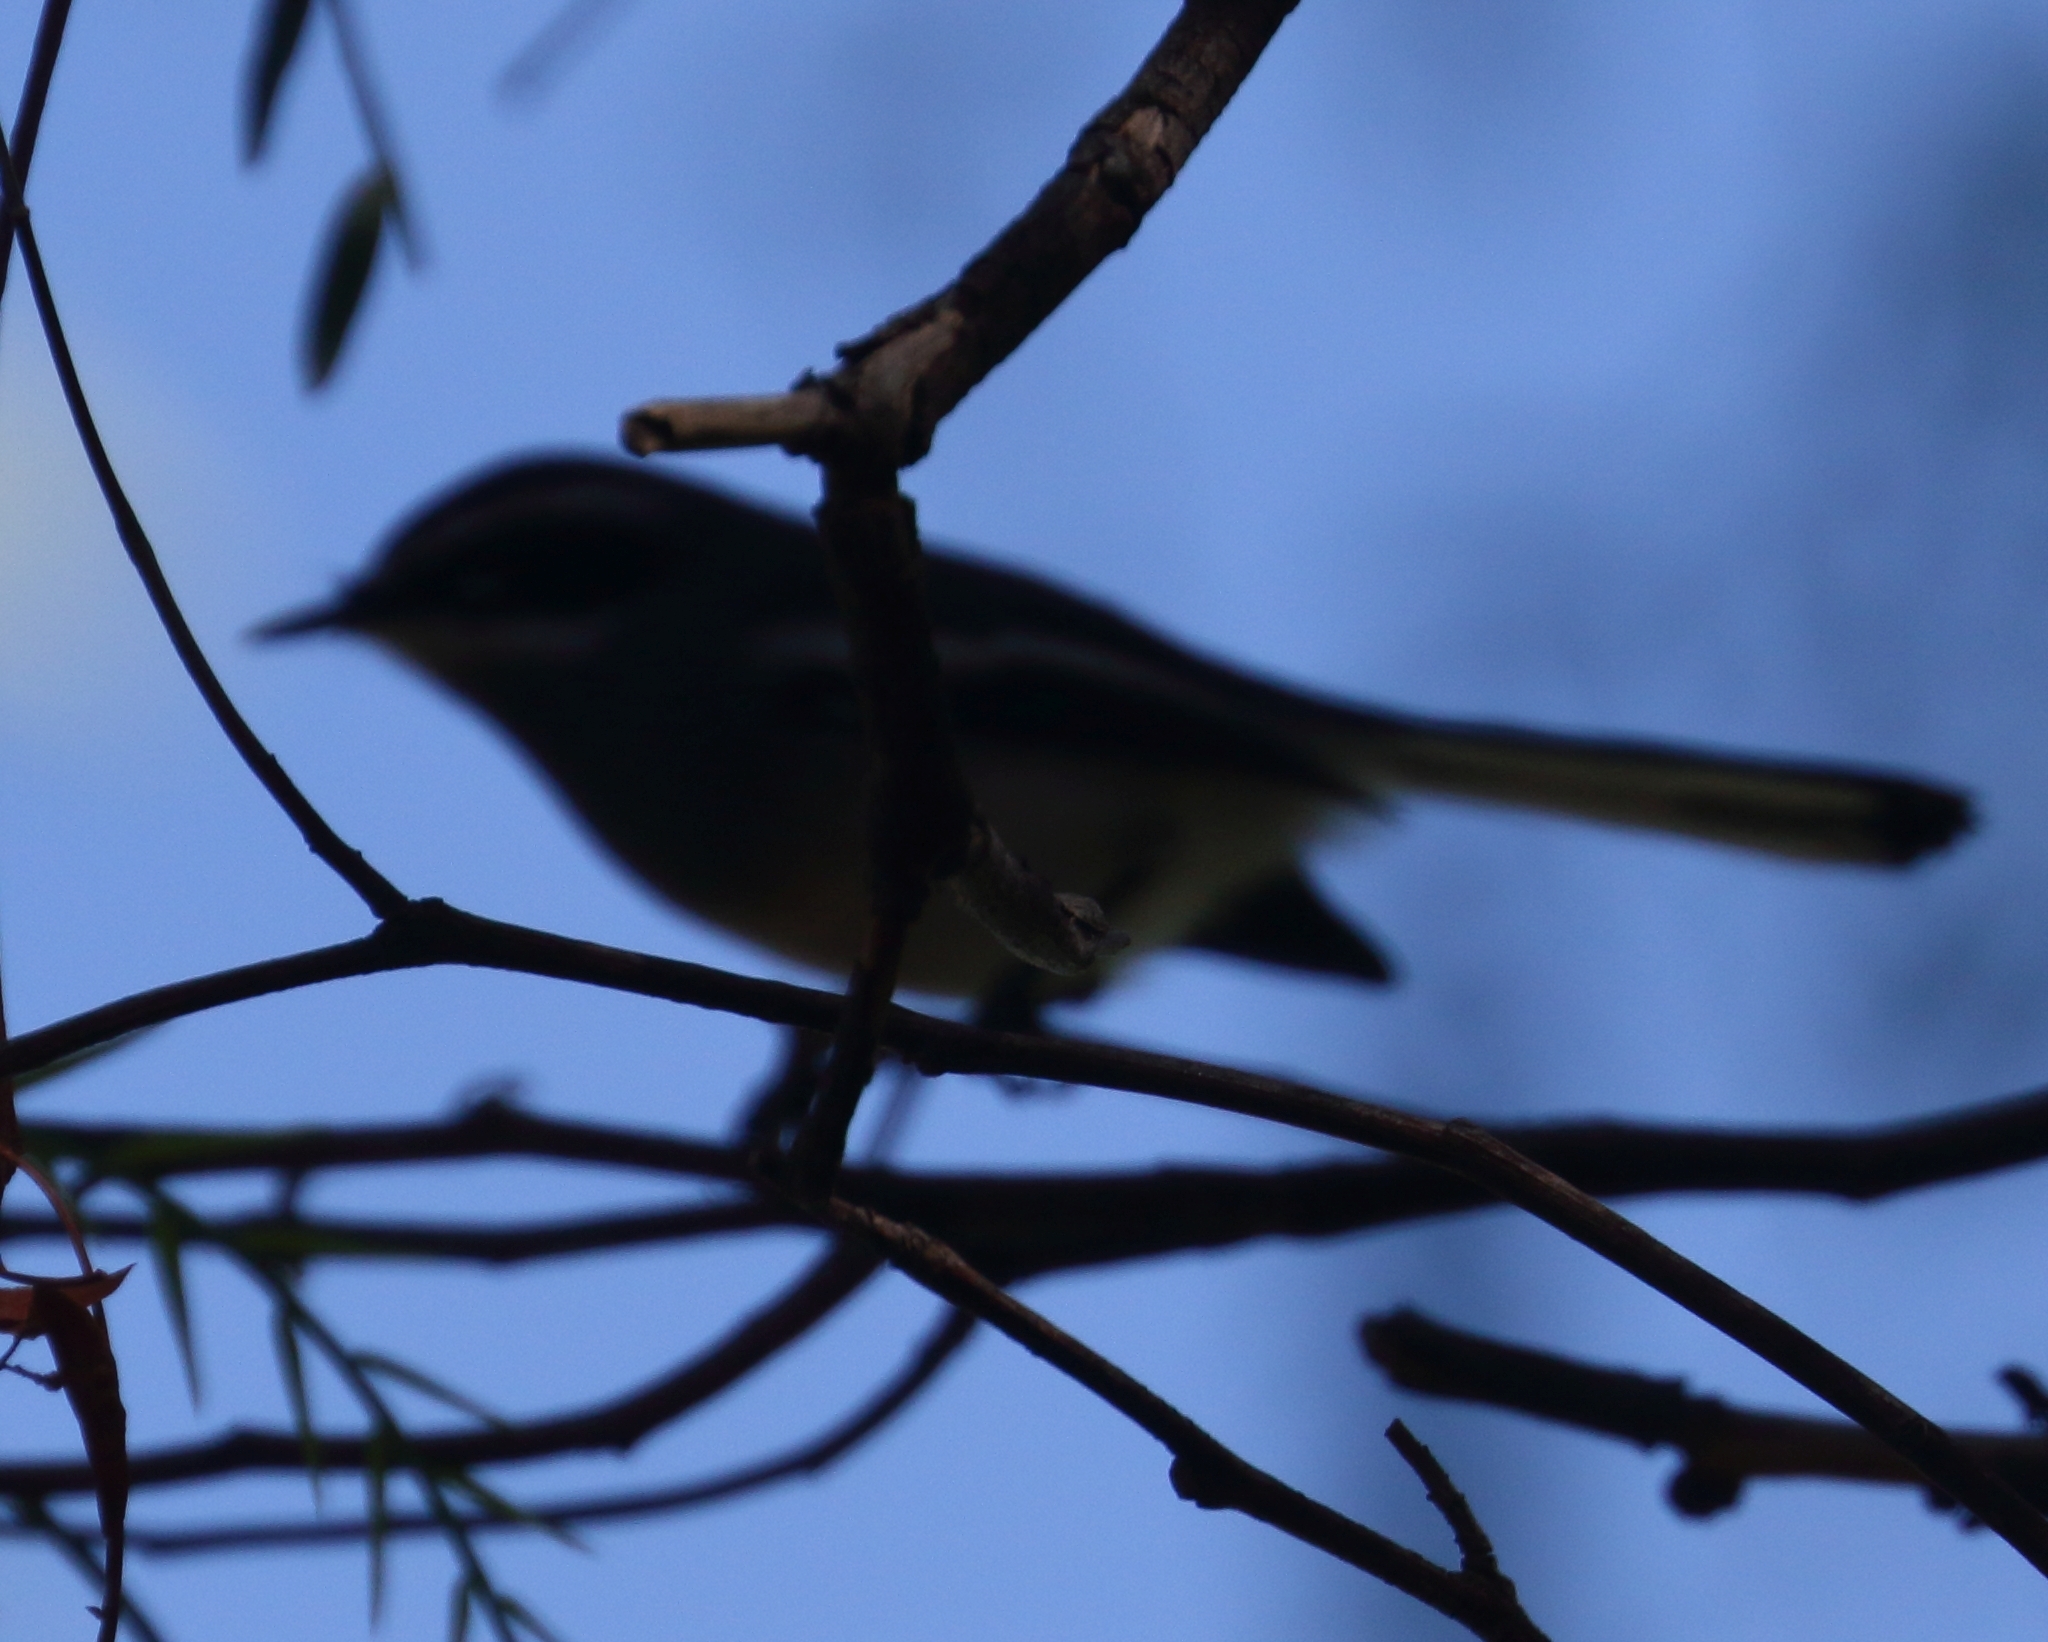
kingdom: Animalia
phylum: Chordata
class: Aves
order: Passeriformes
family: Stenostiridae
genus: Stenostira
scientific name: Stenostira scita
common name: Fairy flycatcher
